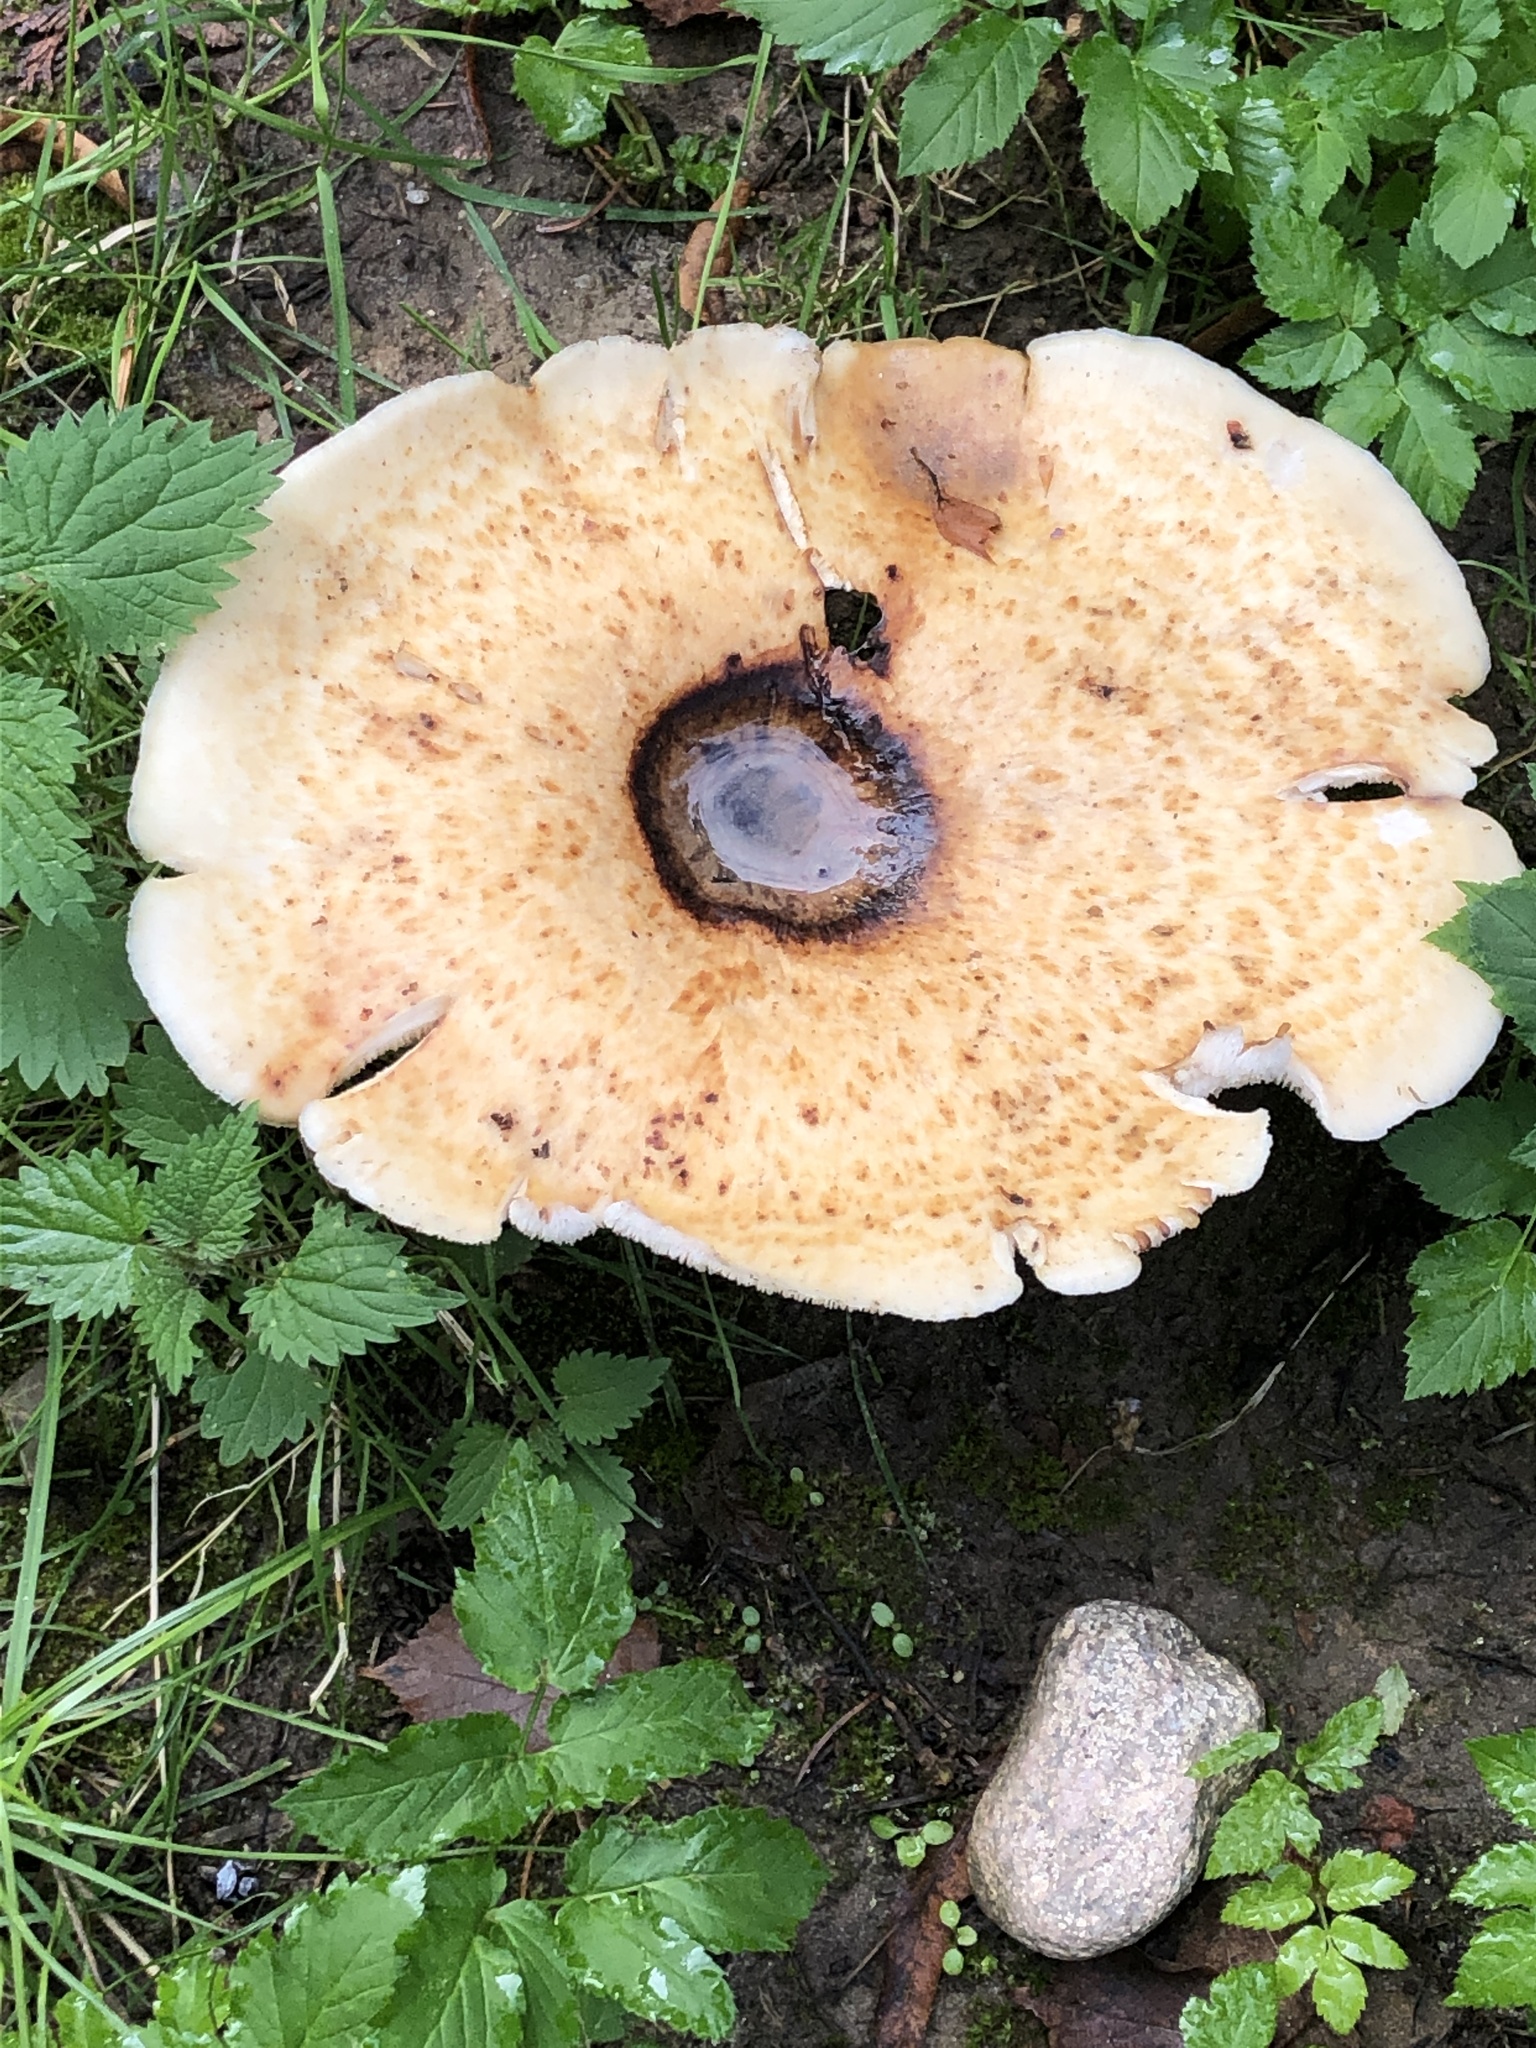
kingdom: Fungi
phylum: Basidiomycota
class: Agaricomycetes
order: Polyporales
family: Polyporaceae
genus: Cerioporus
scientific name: Cerioporus squamosus
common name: Dryad's saddle
